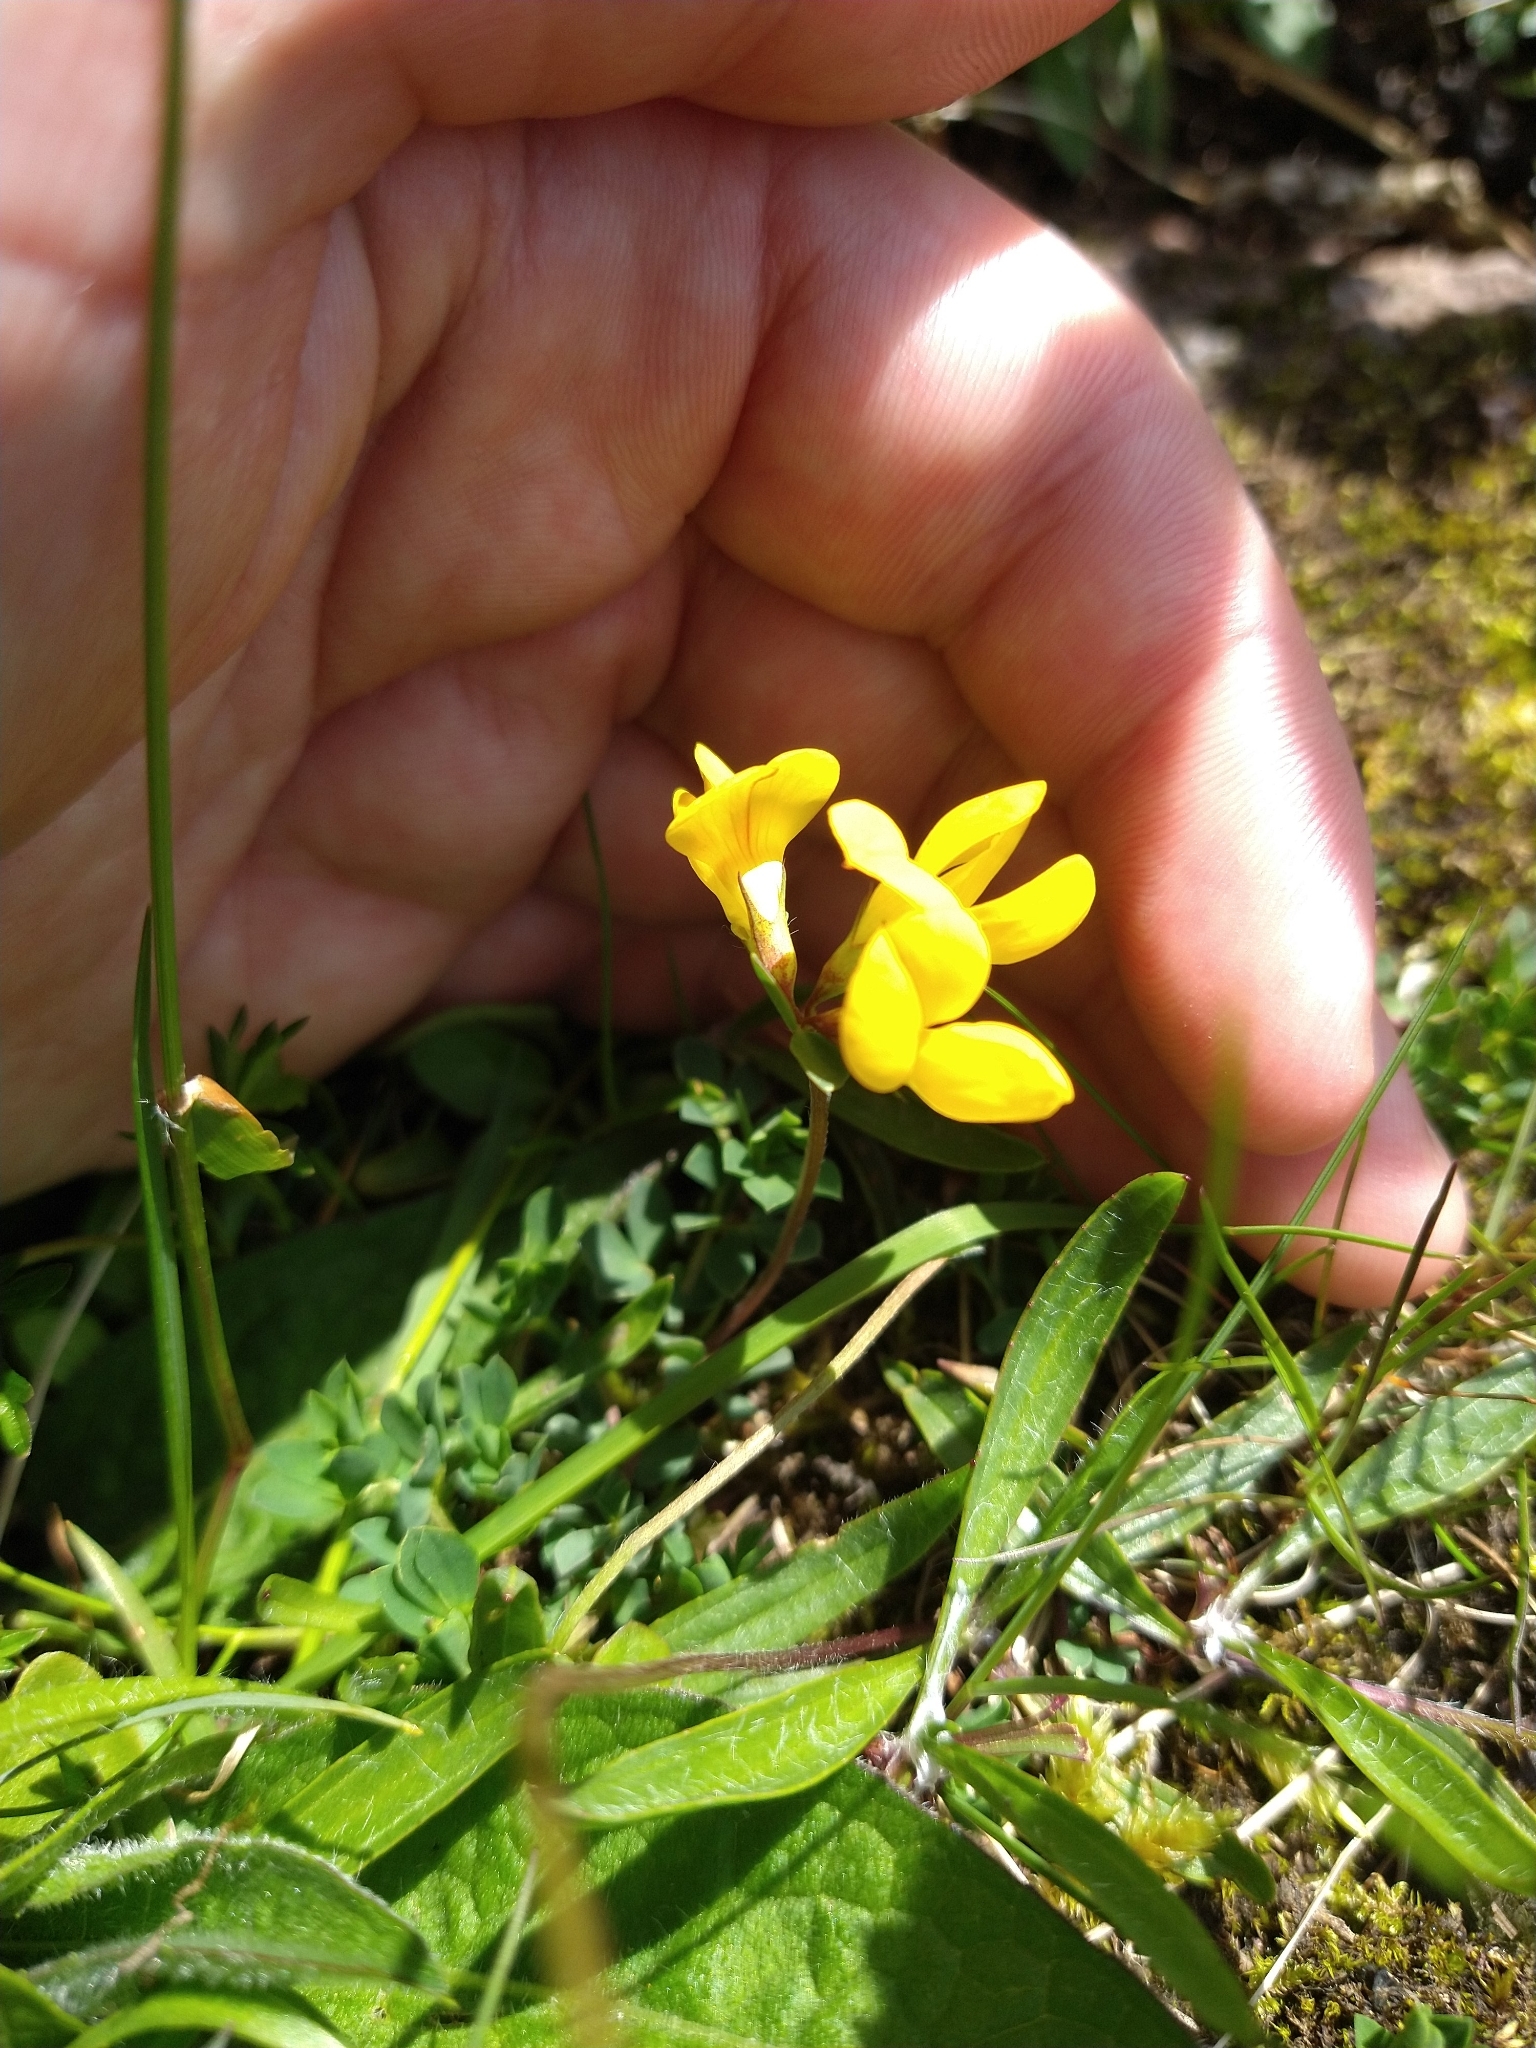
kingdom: Plantae
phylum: Tracheophyta
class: Magnoliopsida
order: Fabales
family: Fabaceae
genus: Lotus
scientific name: Lotus corniculatus
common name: Common bird's-foot-trefoil
